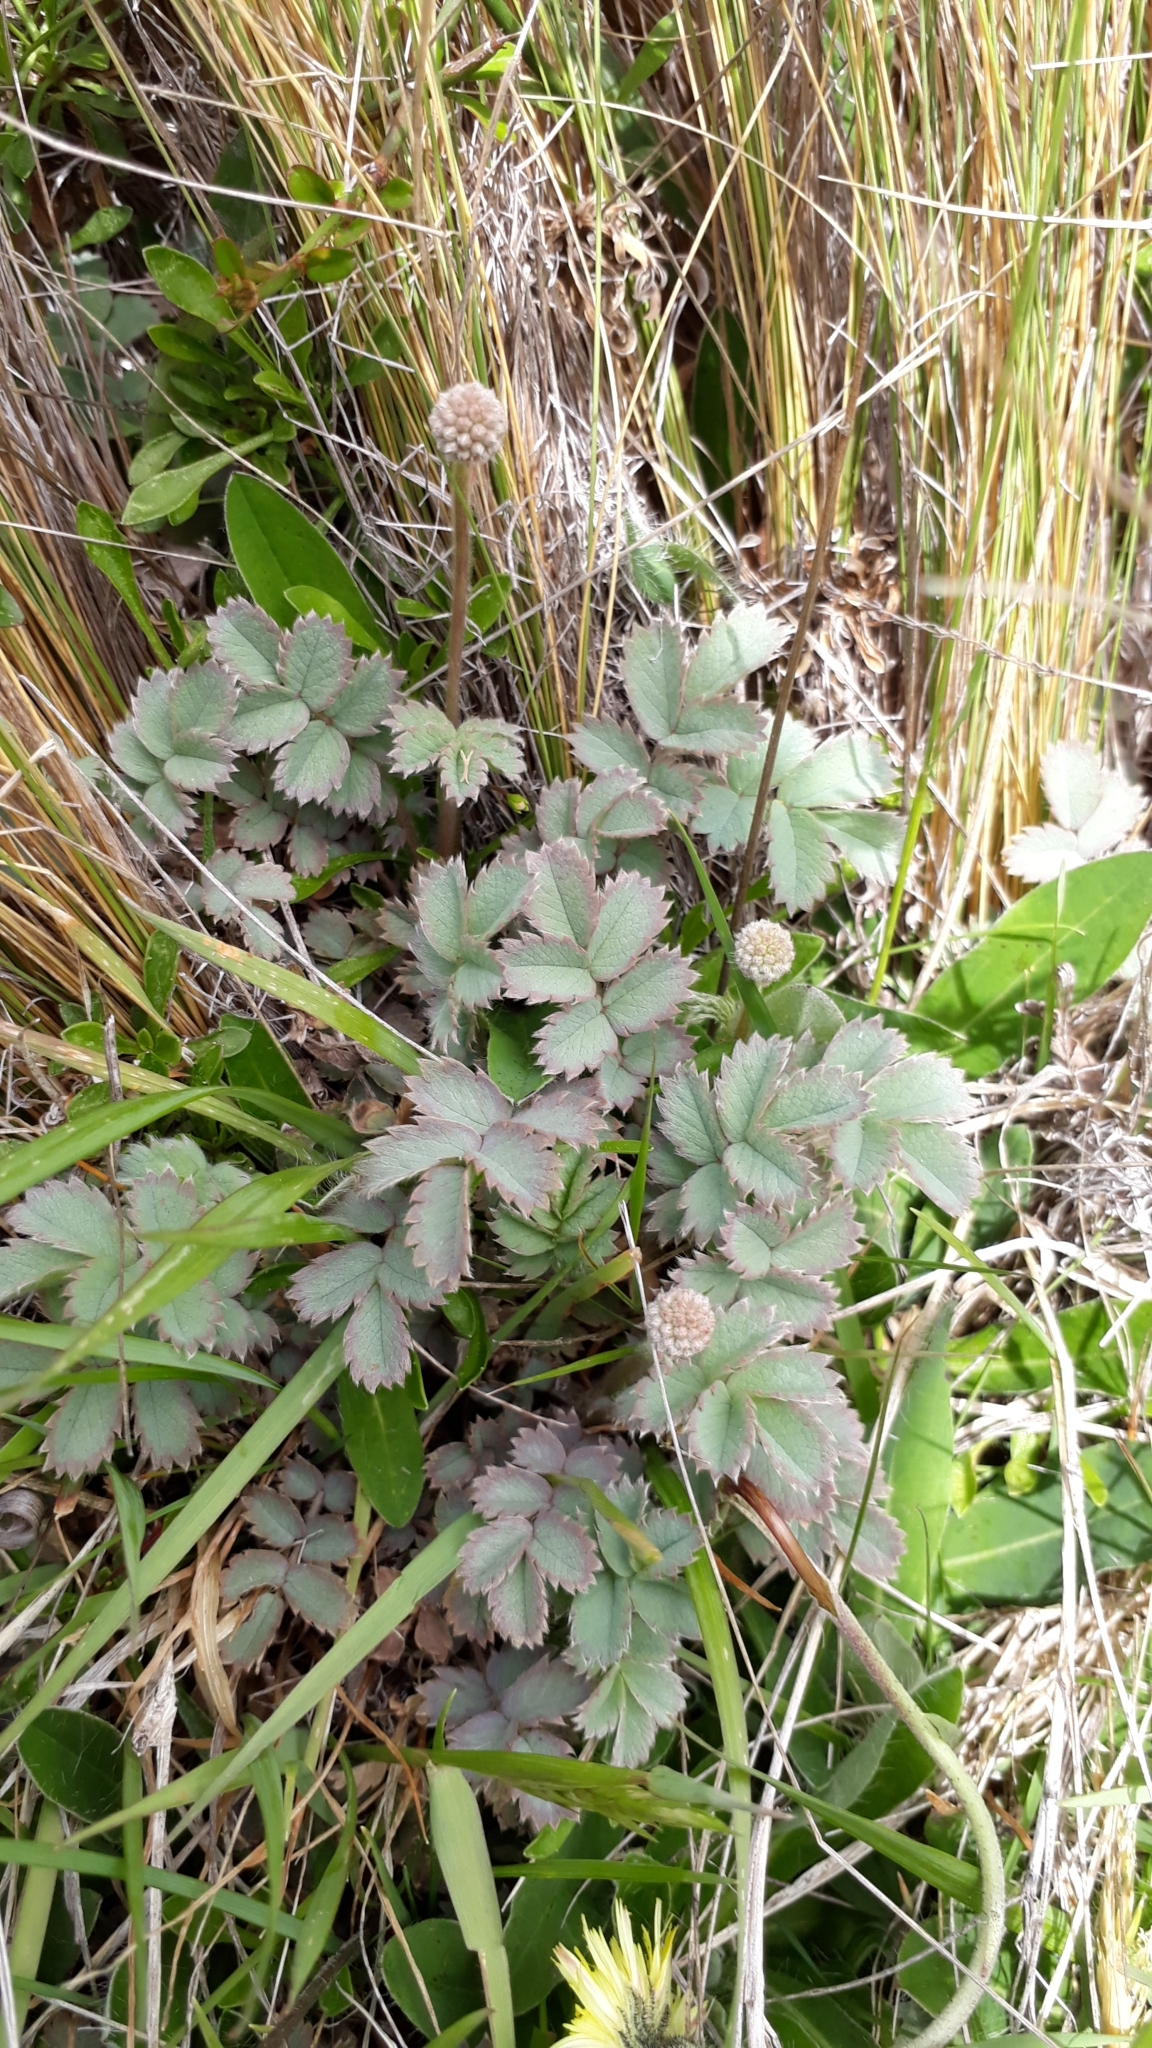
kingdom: Plantae
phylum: Tracheophyta
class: Magnoliopsida
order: Rosales
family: Rosaceae
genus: Acaena
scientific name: Acaena caesiiglauca
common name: Glaucous pirri-pirri-bur
